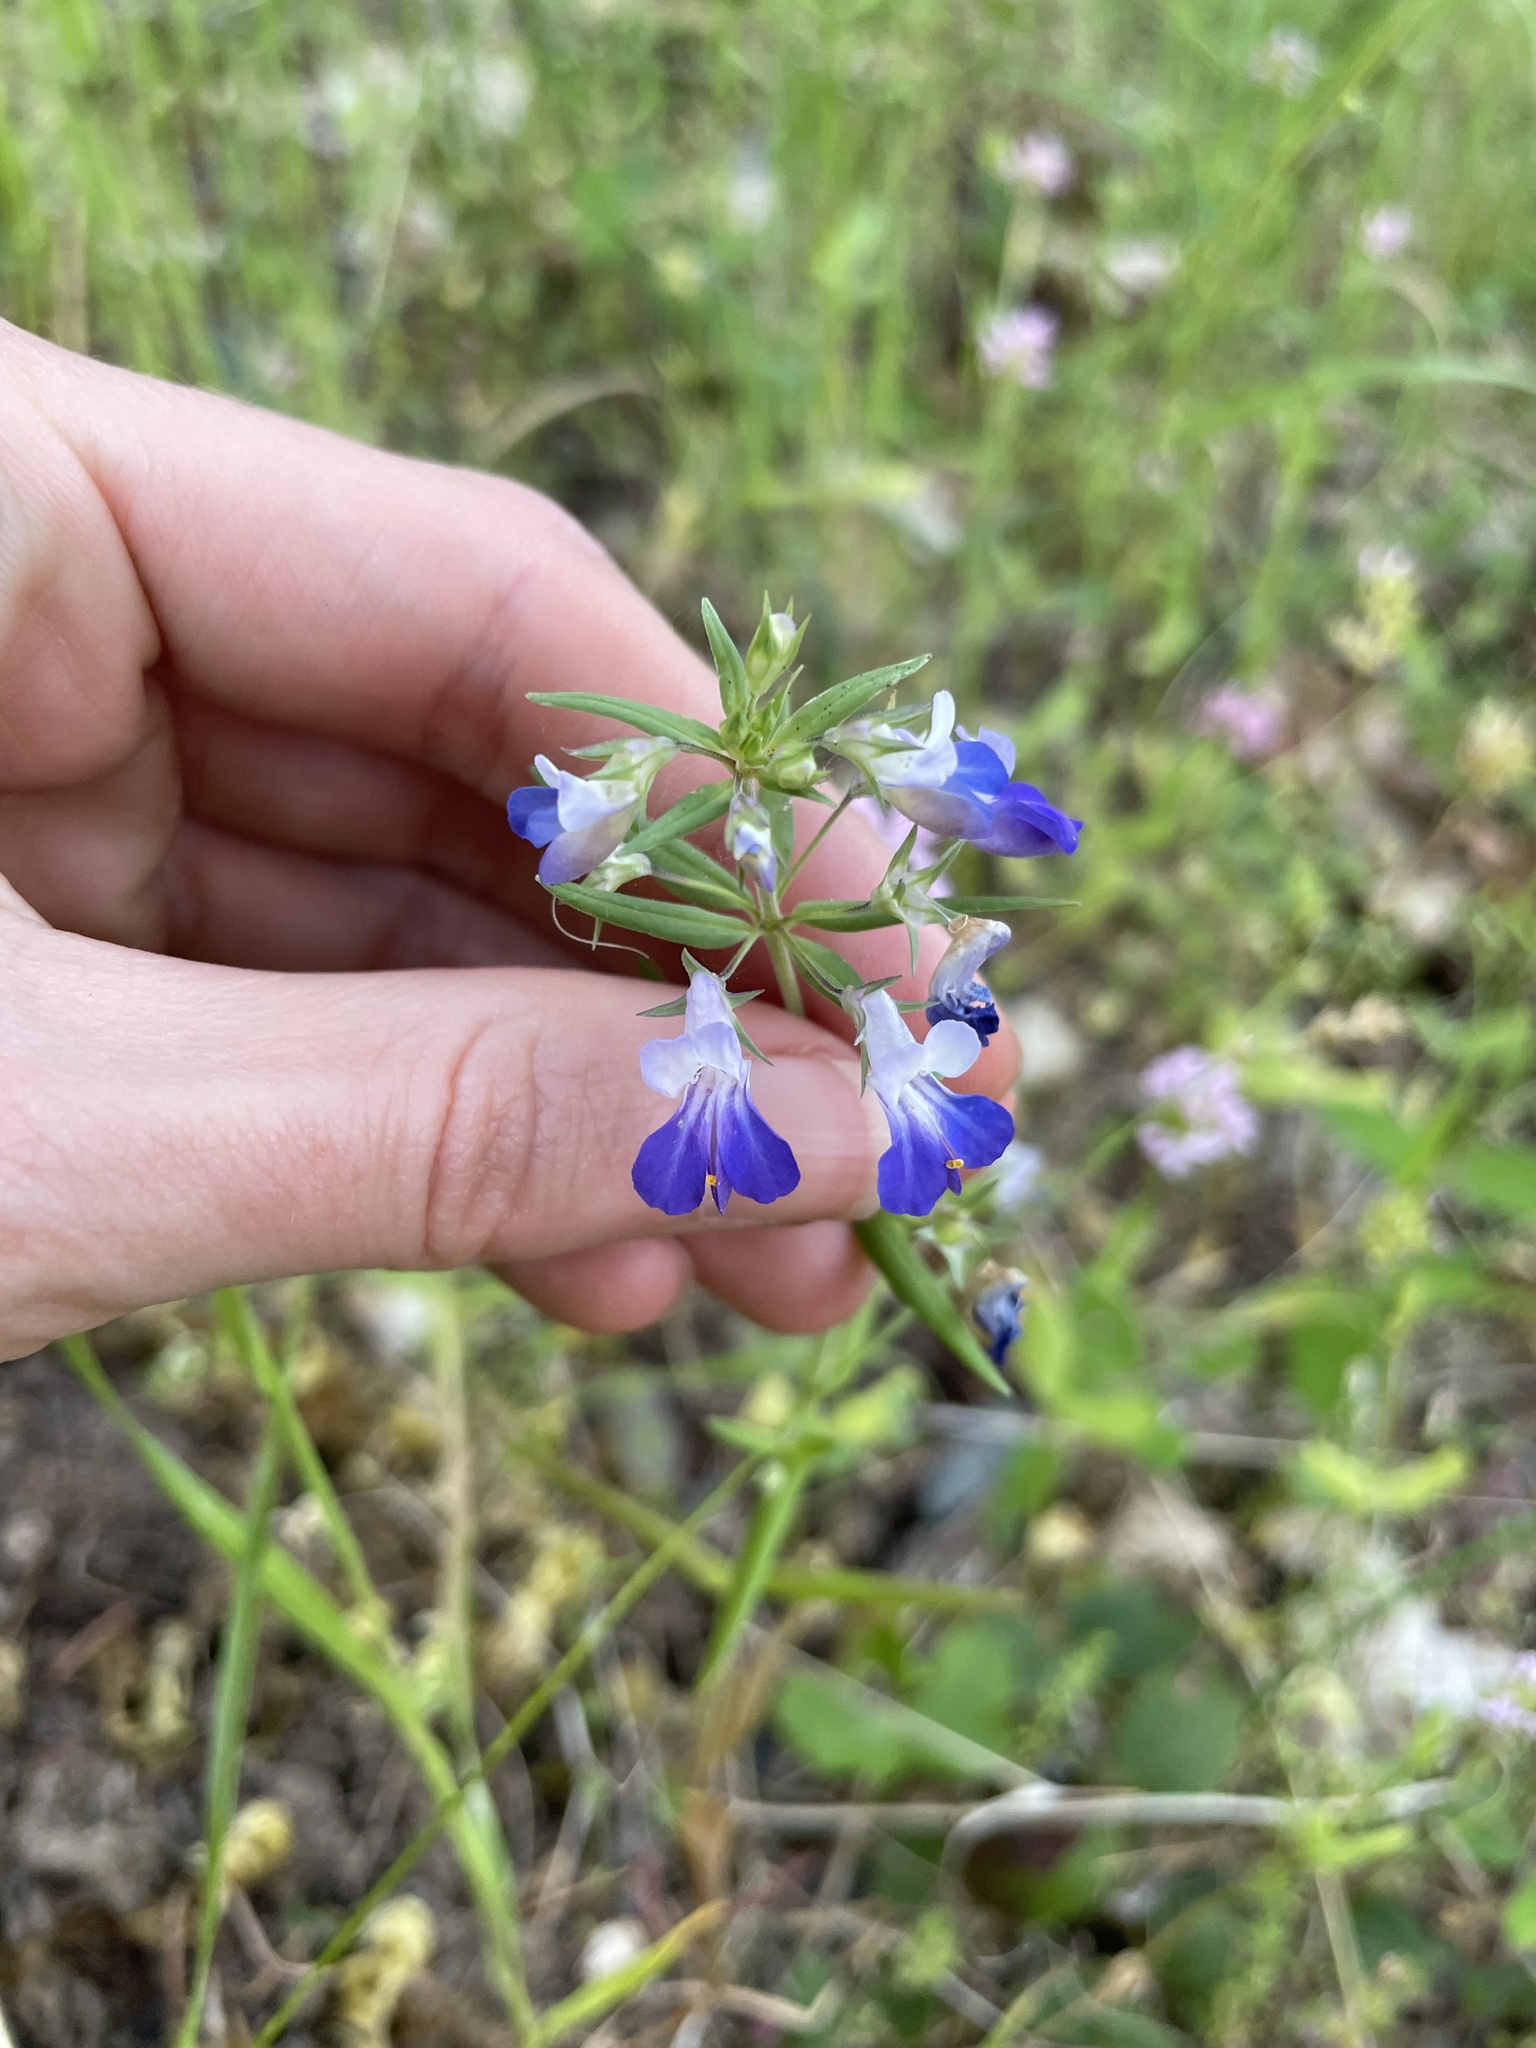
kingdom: Plantae
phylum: Tracheophyta
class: Magnoliopsida
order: Lamiales
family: Plantaginaceae
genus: Collinsia
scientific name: Collinsia grandiflora
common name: Large-flower blue-eyed-mary
